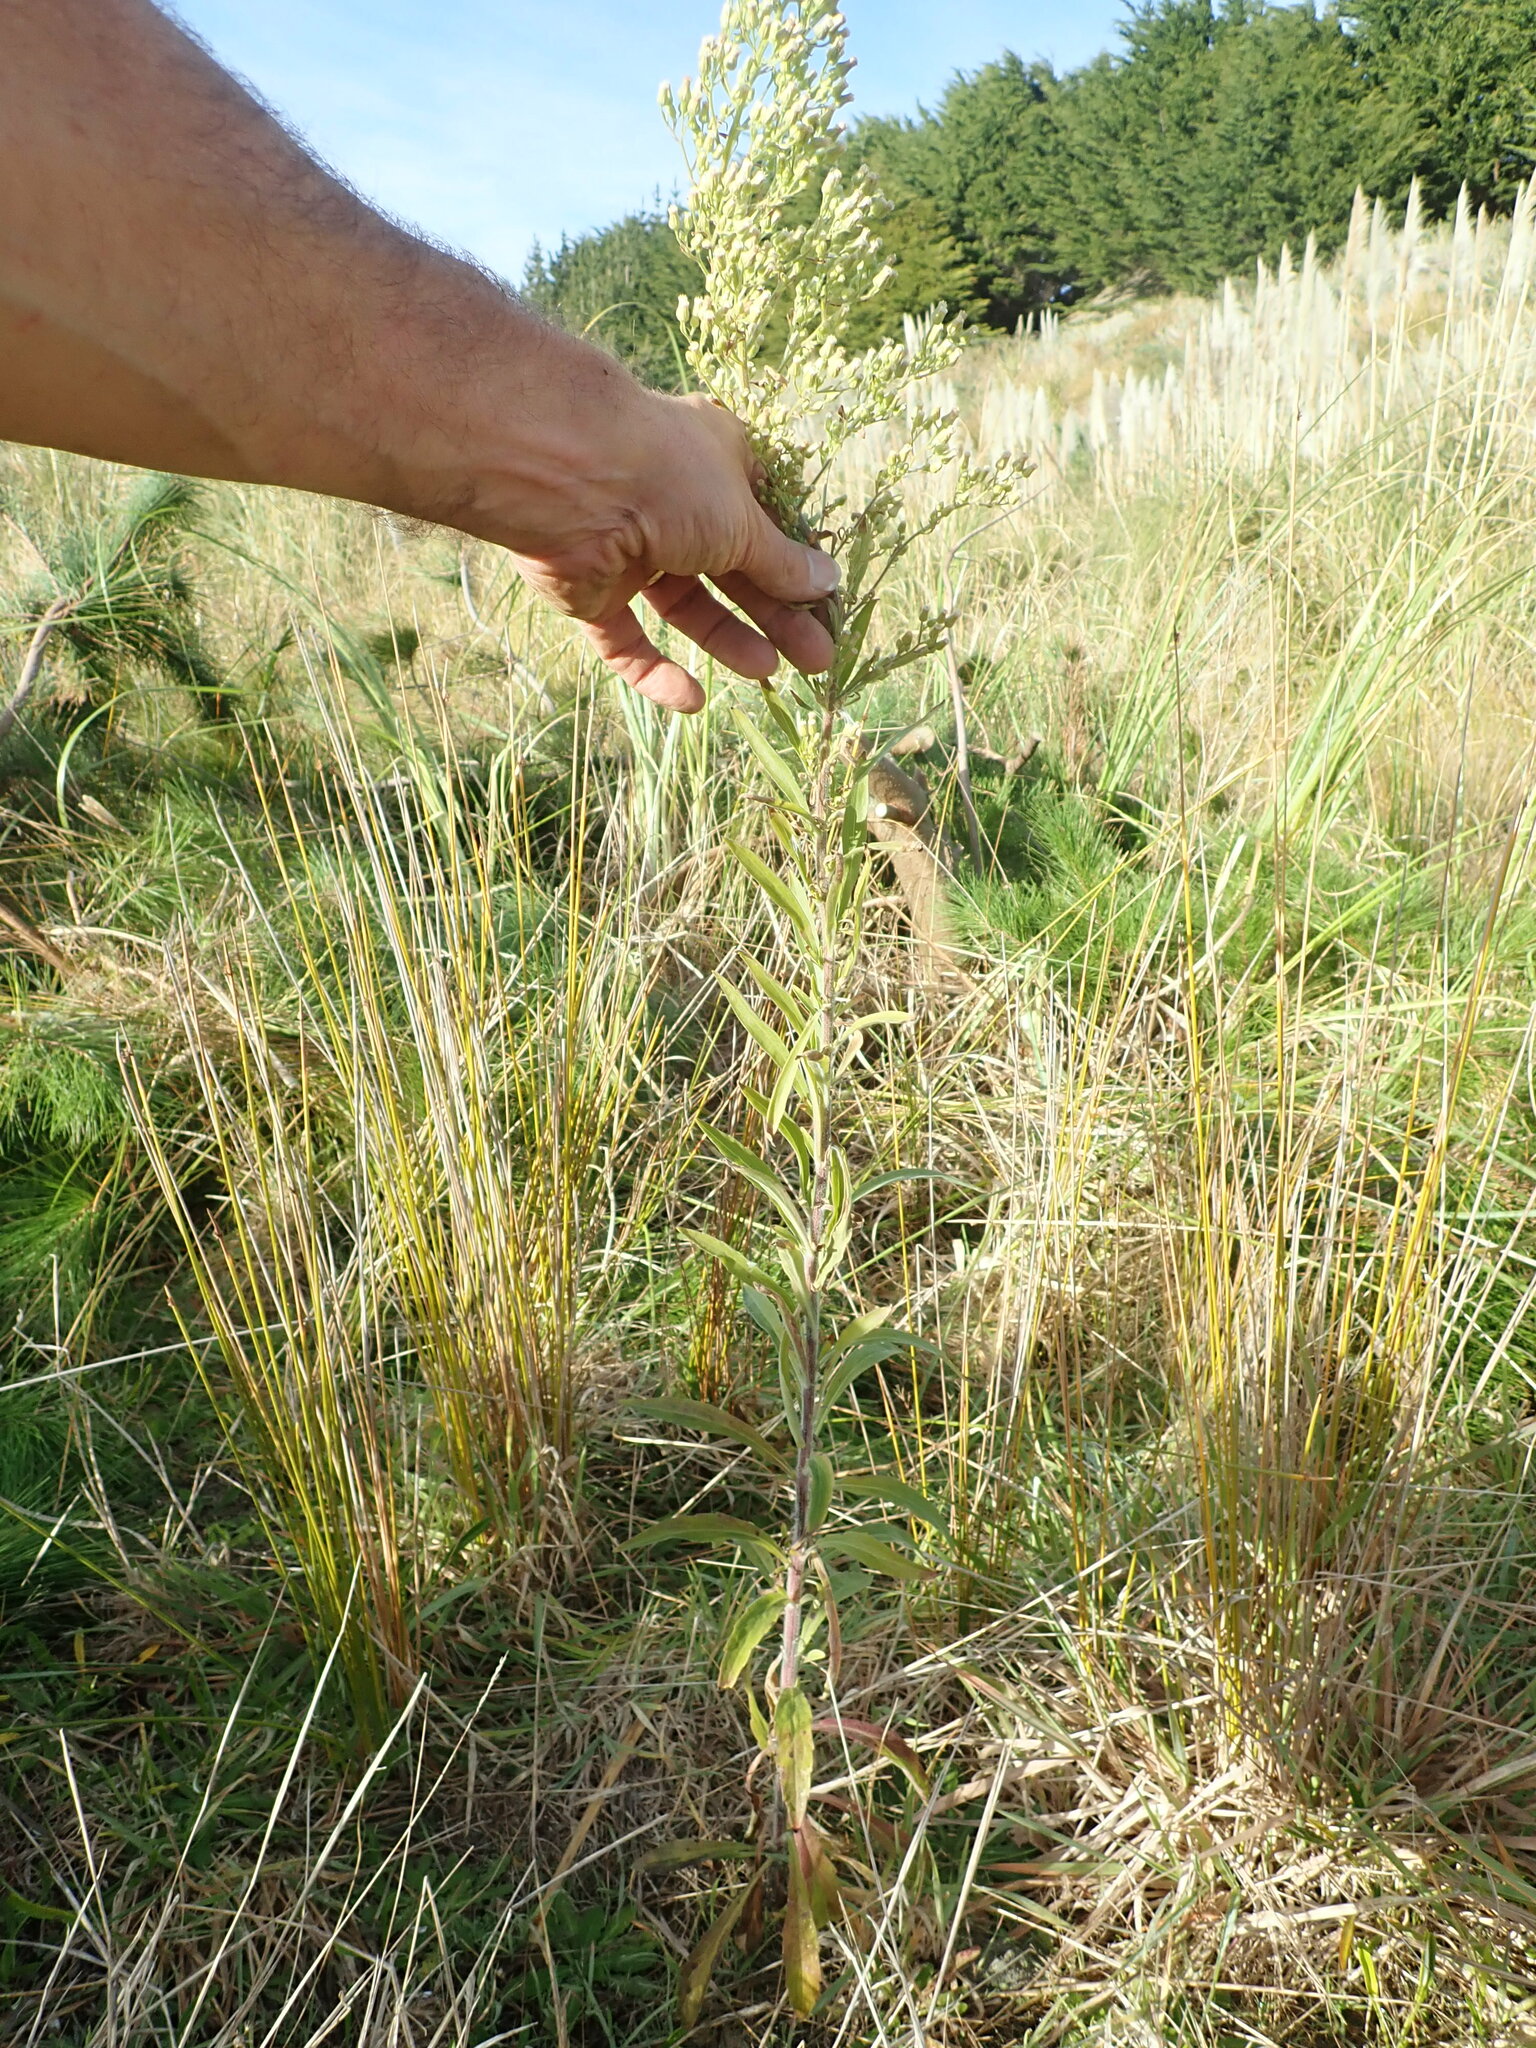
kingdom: Plantae
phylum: Tracheophyta
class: Magnoliopsida
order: Asterales
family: Asteraceae
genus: Erigeron
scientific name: Erigeron sumatrensis
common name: Daisy
